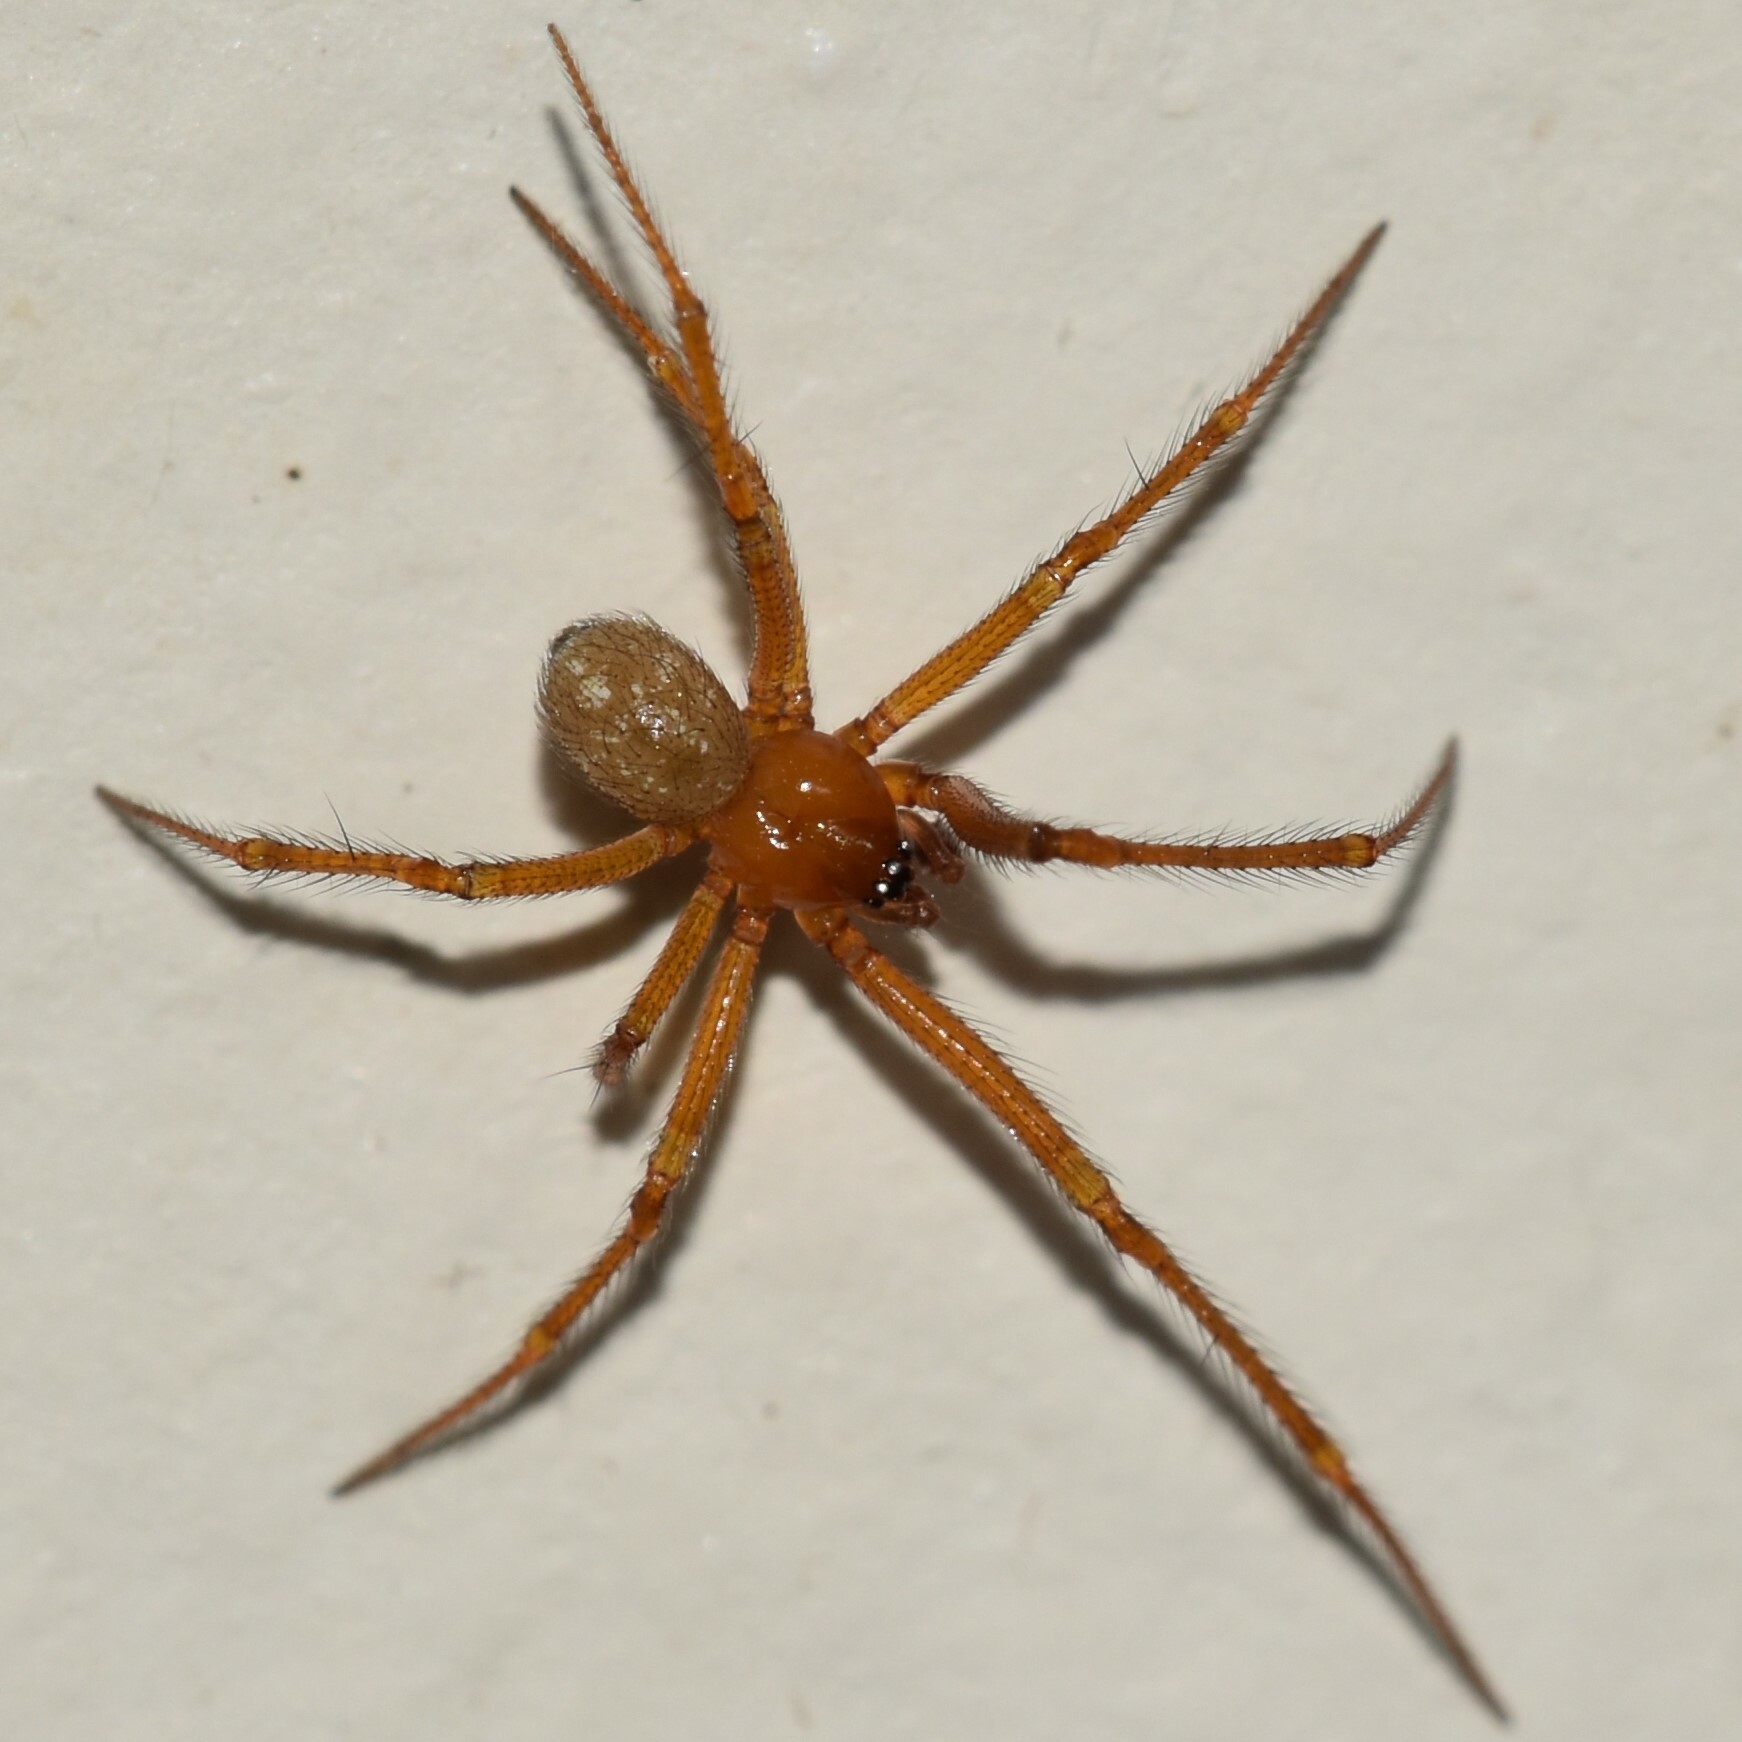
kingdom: Animalia
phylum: Arthropoda
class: Arachnida
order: Araneae
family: Theridiidae
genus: Nesticodes
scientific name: Nesticodes rufipes
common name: Cobweb spiders
